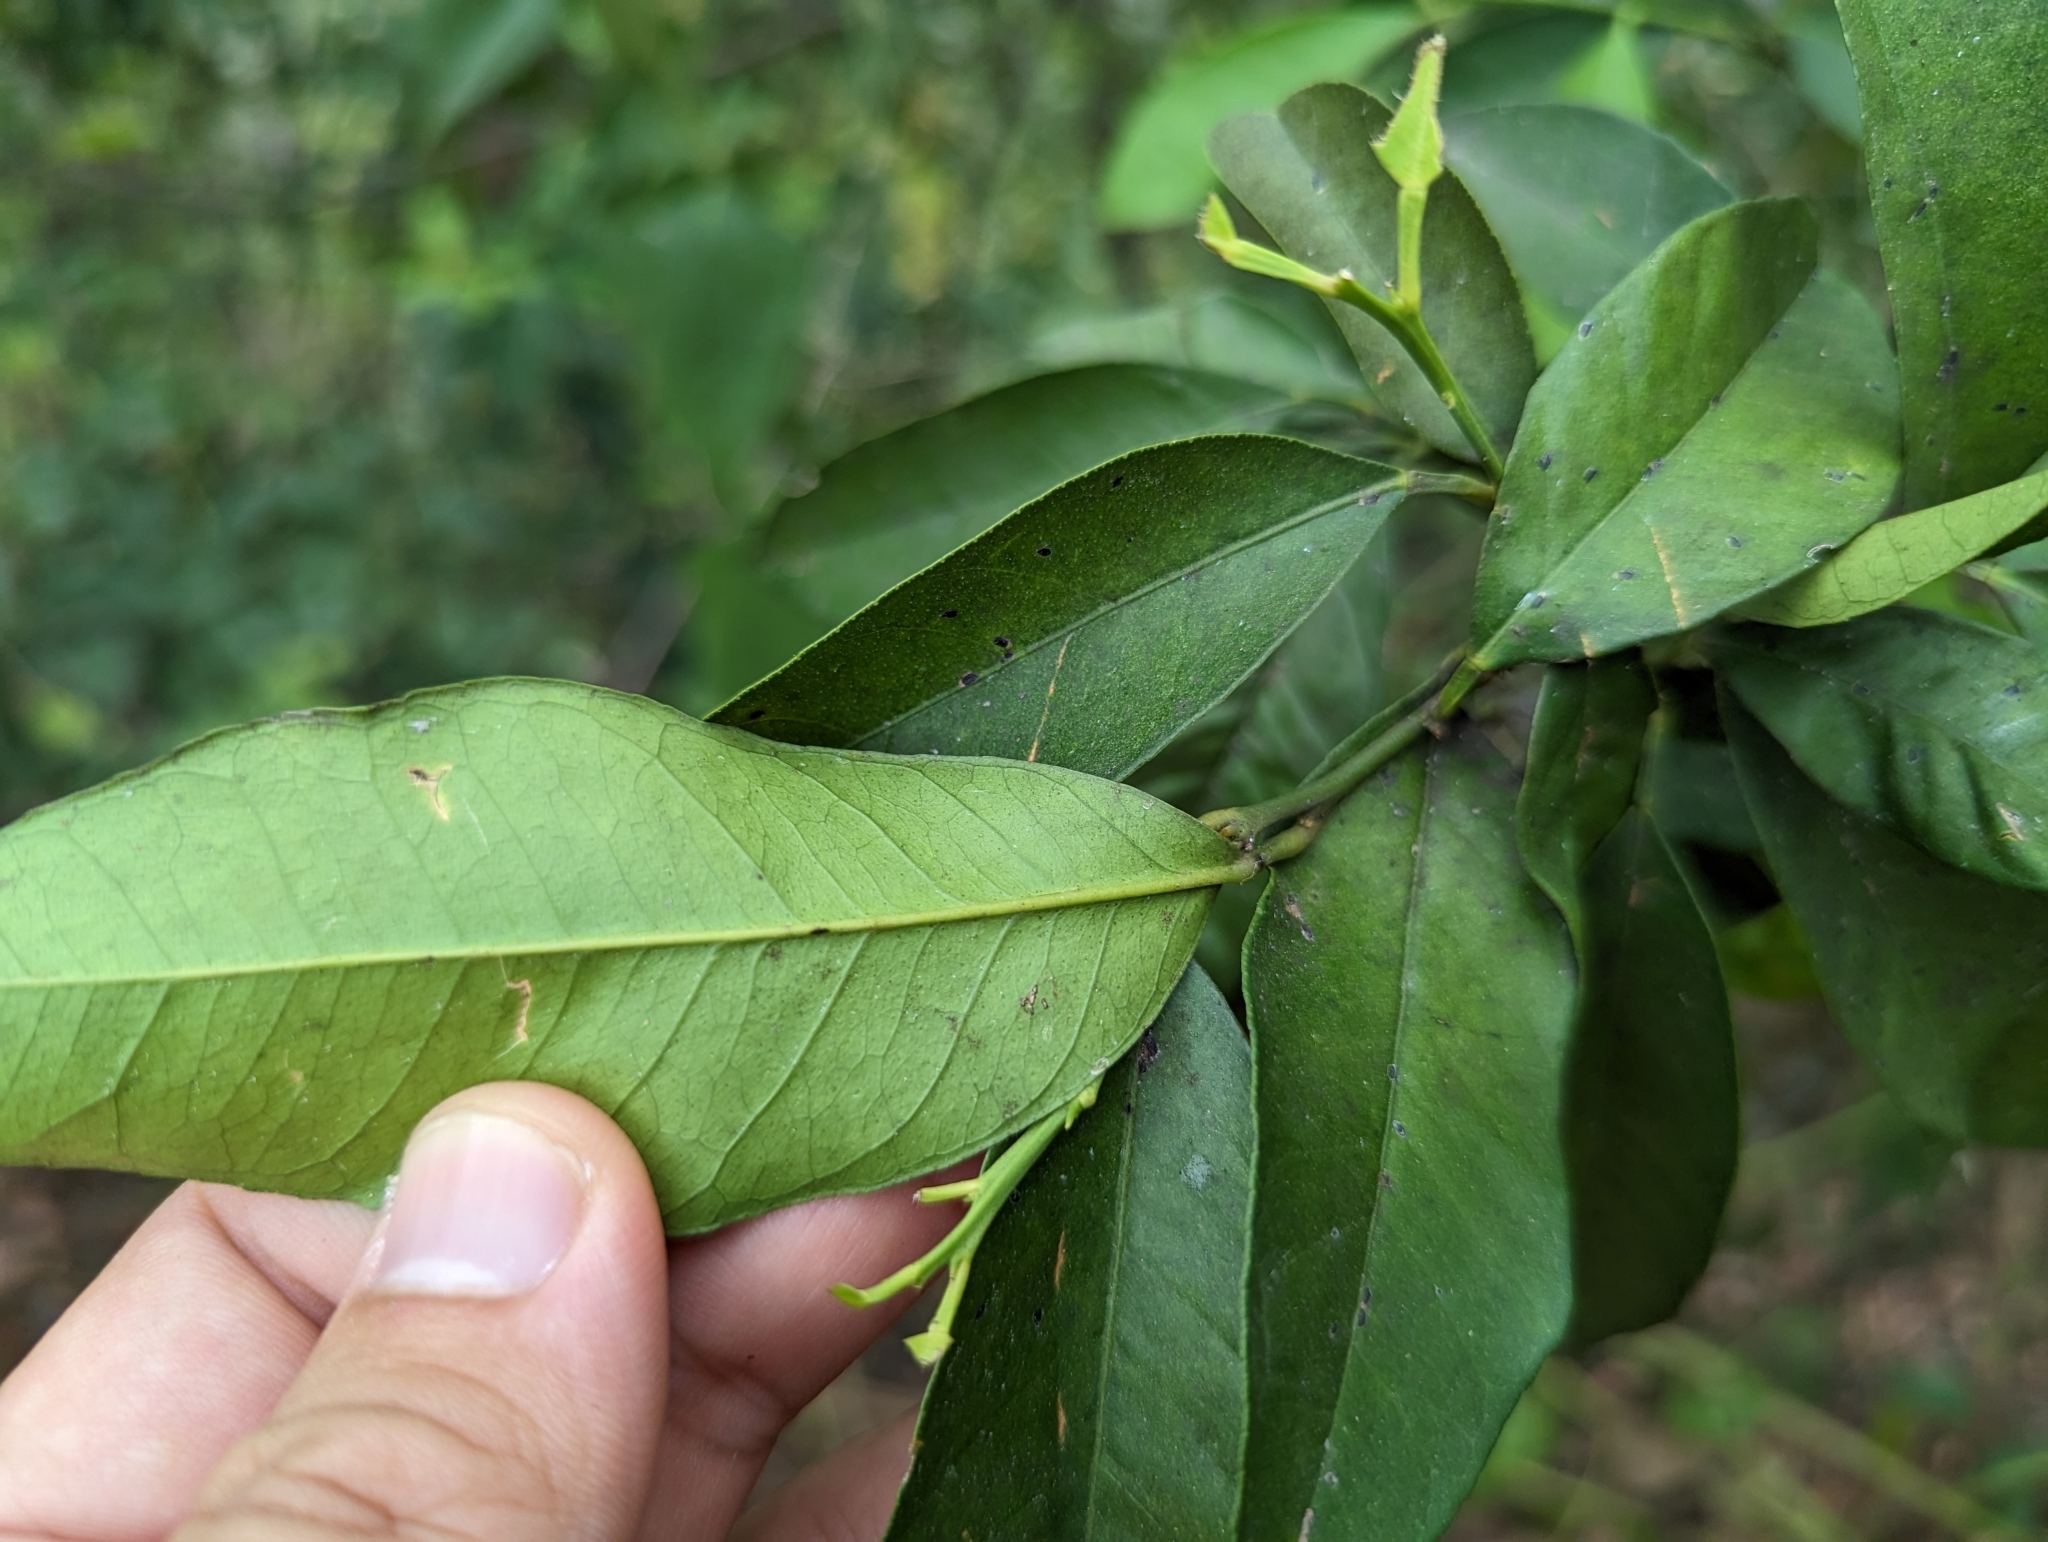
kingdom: Plantae
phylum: Tracheophyta
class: Magnoliopsida
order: Sapindales
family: Rutaceae
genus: Citrus
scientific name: Citrus tachibana
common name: Tachibana orange
